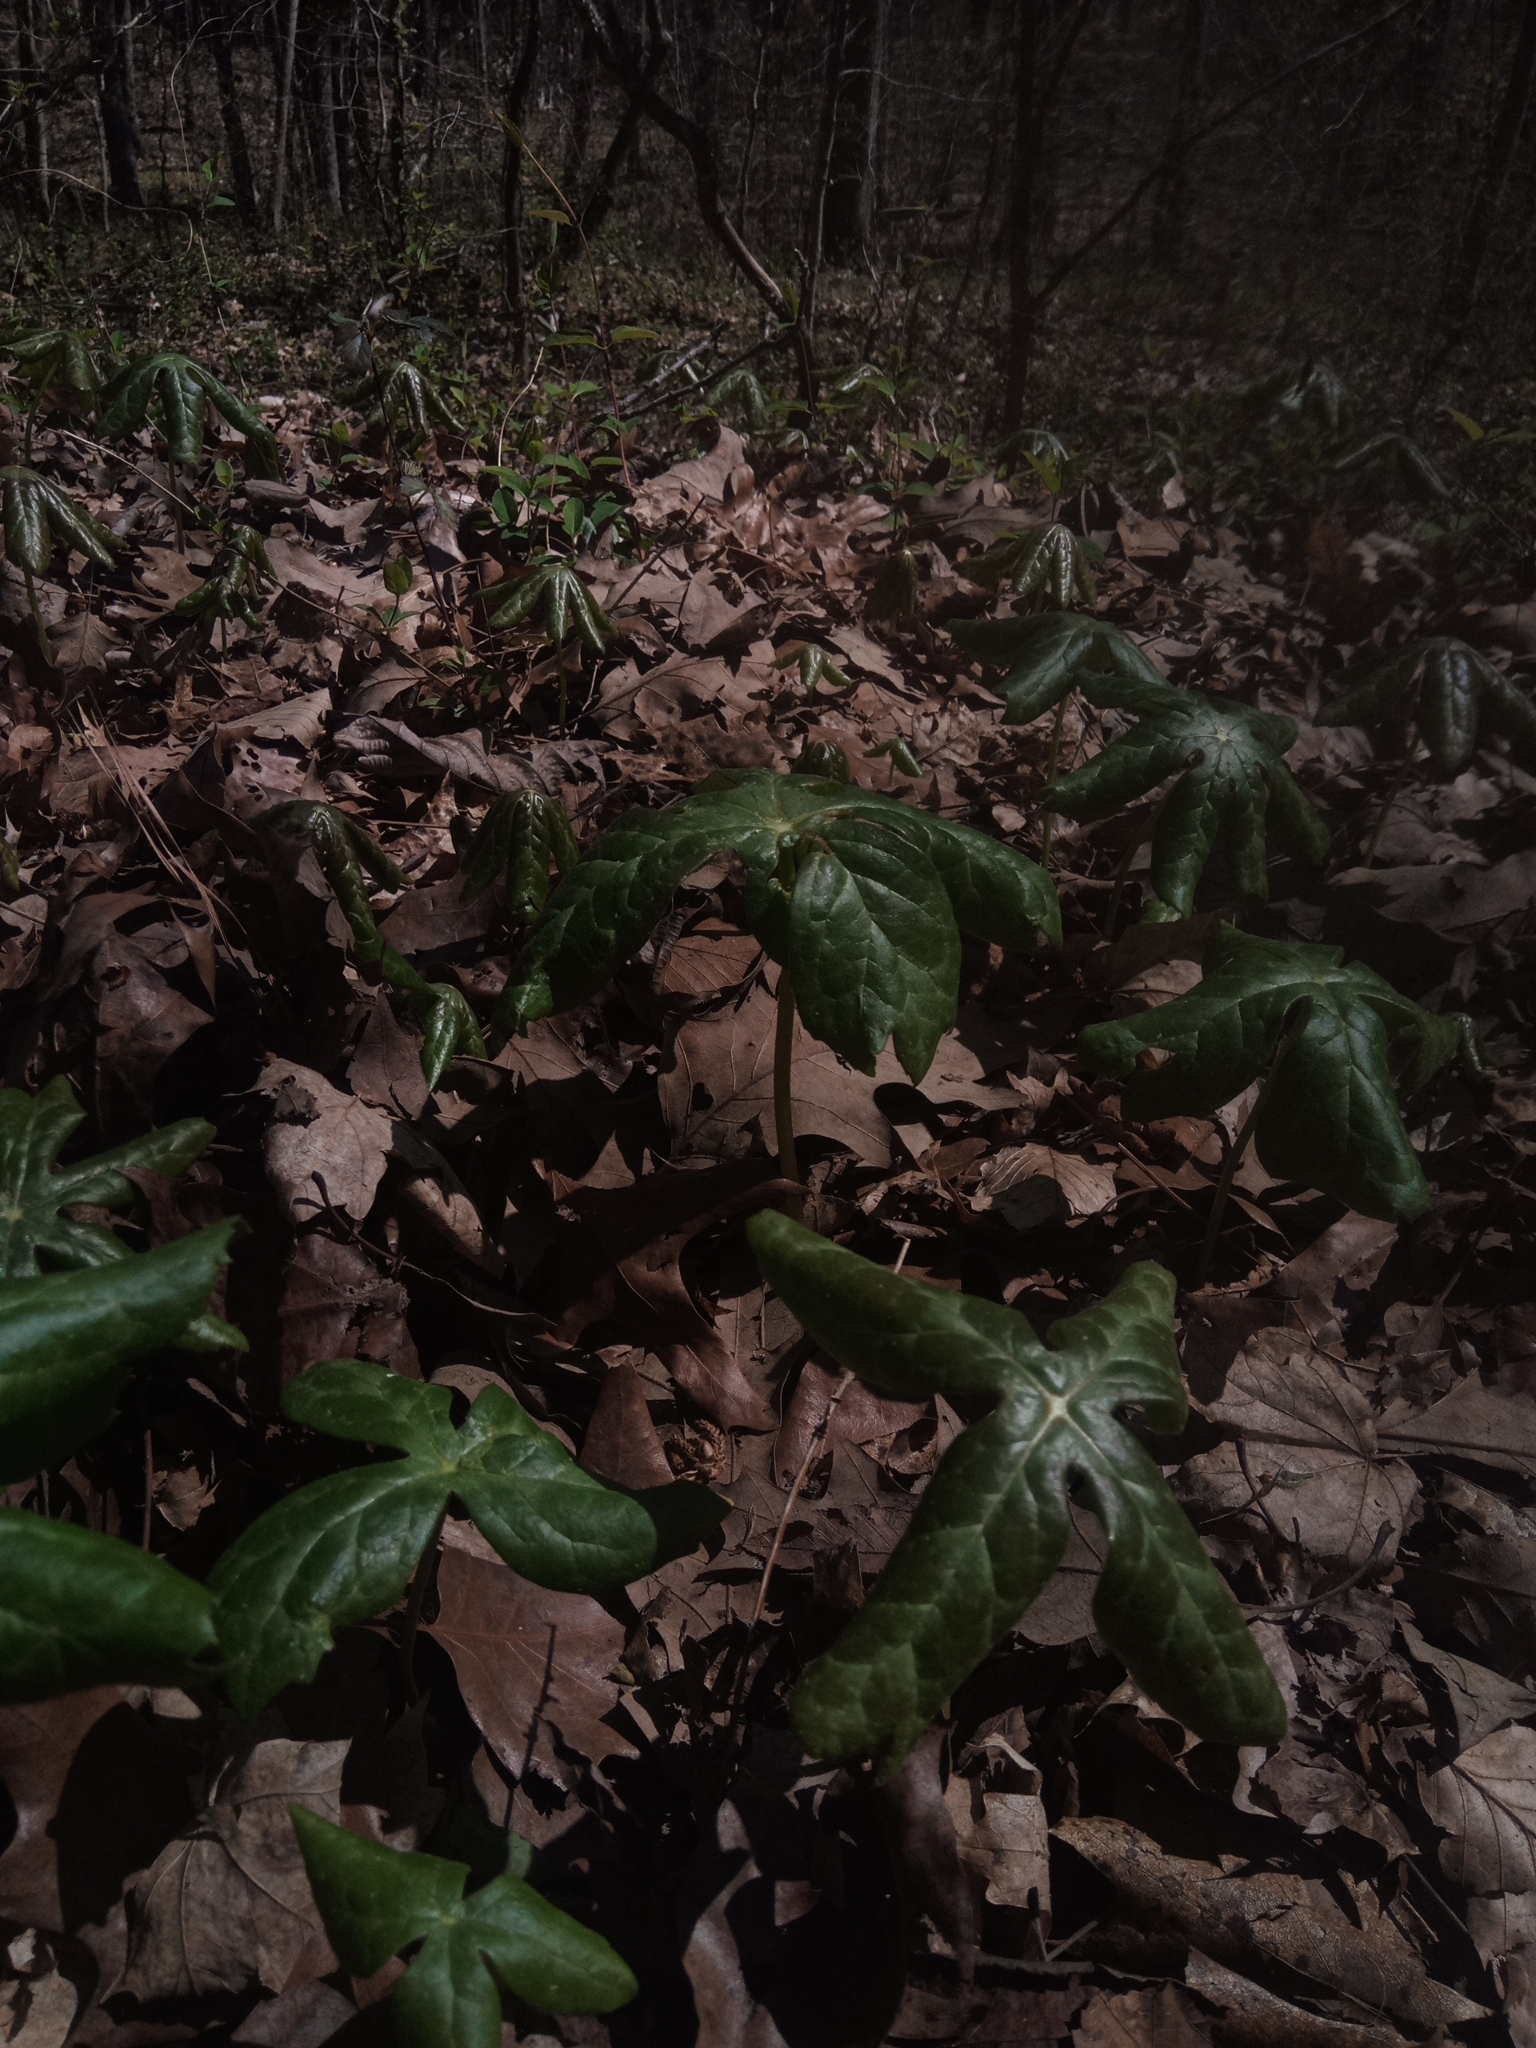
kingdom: Plantae
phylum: Tracheophyta
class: Magnoliopsida
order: Ranunculales
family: Berberidaceae
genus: Podophyllum
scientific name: Podophyllum peltatum
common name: Wild mandrake
